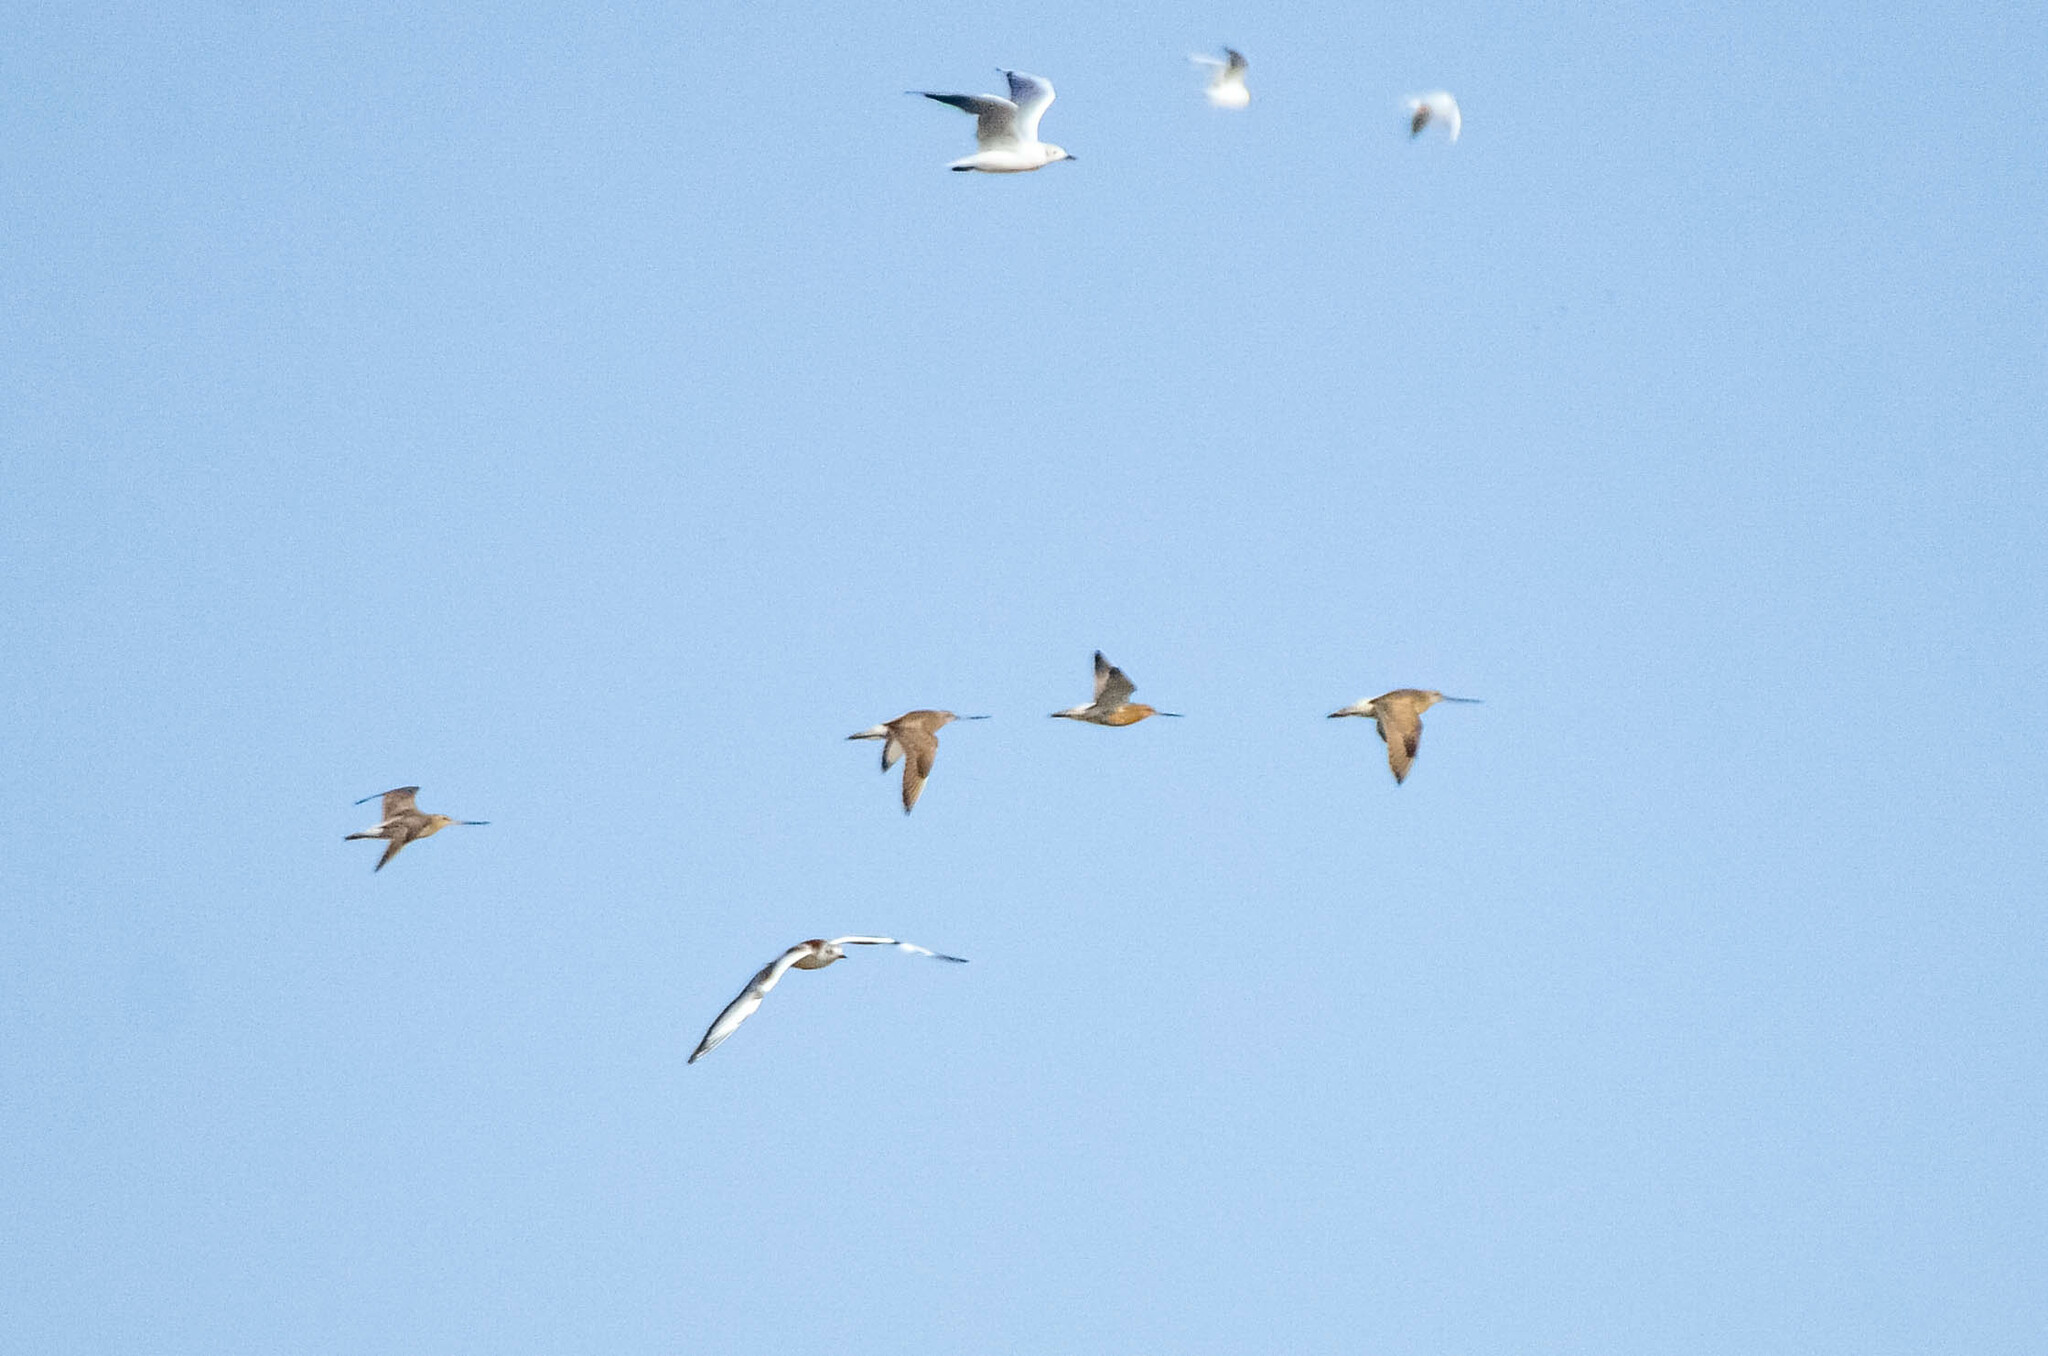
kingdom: Animalia
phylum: Chordata
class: Aves
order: Charadriiformes
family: Scolopacidae
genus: Limosa
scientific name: Limosa lapponica
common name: Bar-tailed godwit
